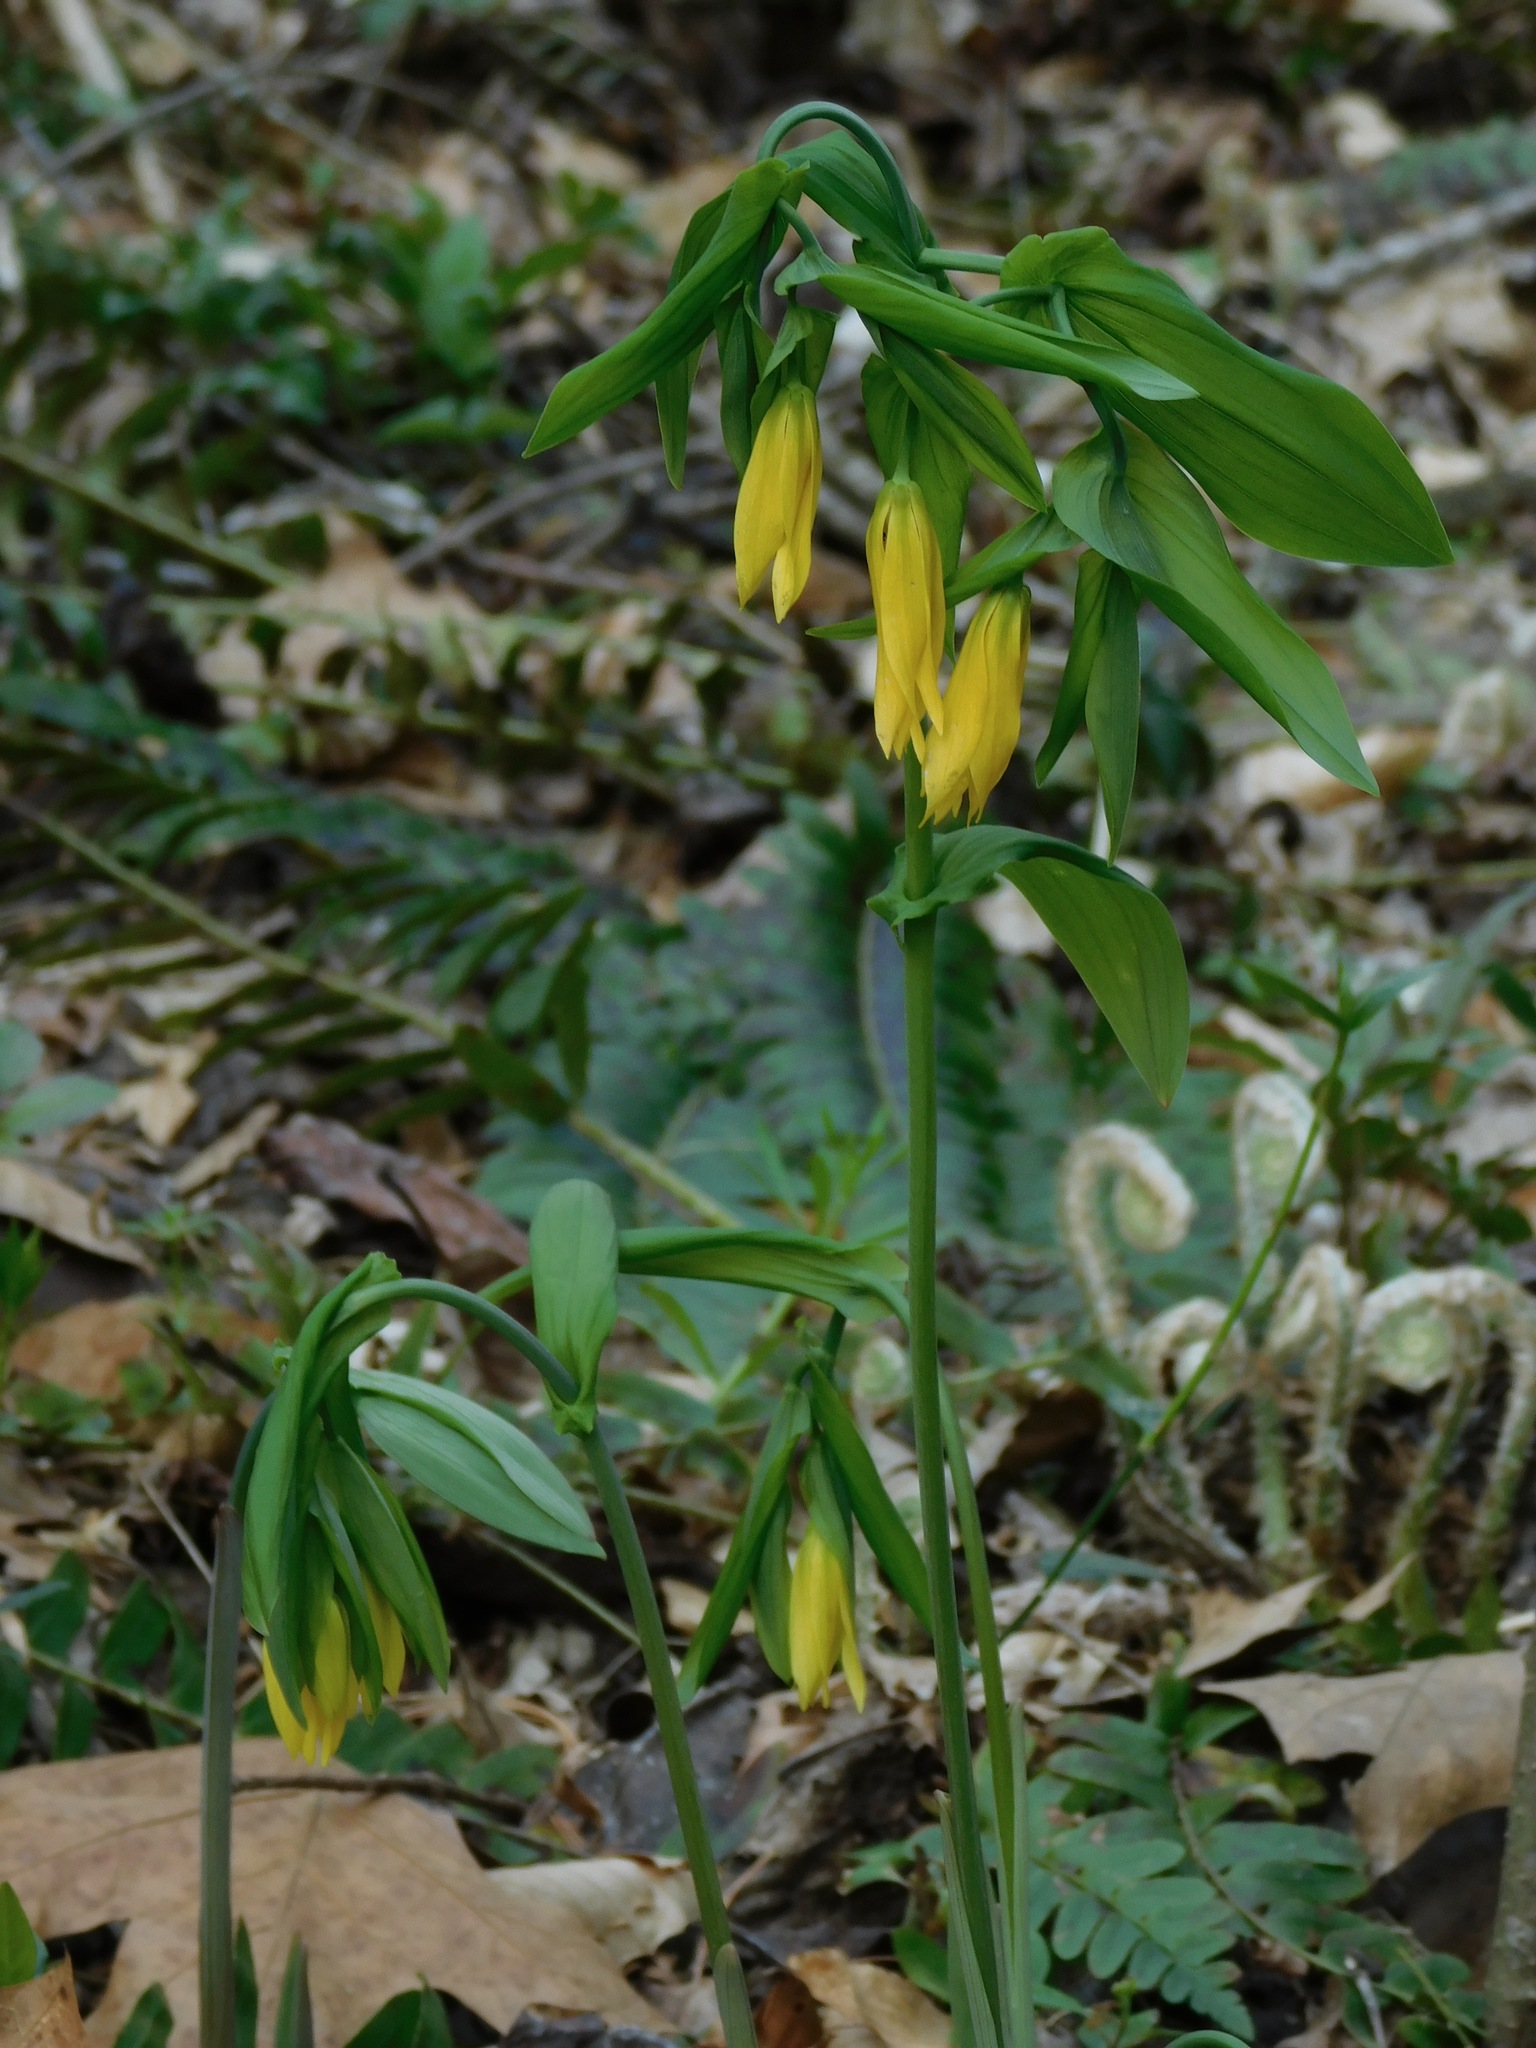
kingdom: Plantae
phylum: Tracheophyta
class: Liliopsida
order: Liliales
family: Colchicaceae
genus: Uvularia
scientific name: Uvularia grandiflora
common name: Bellwort
